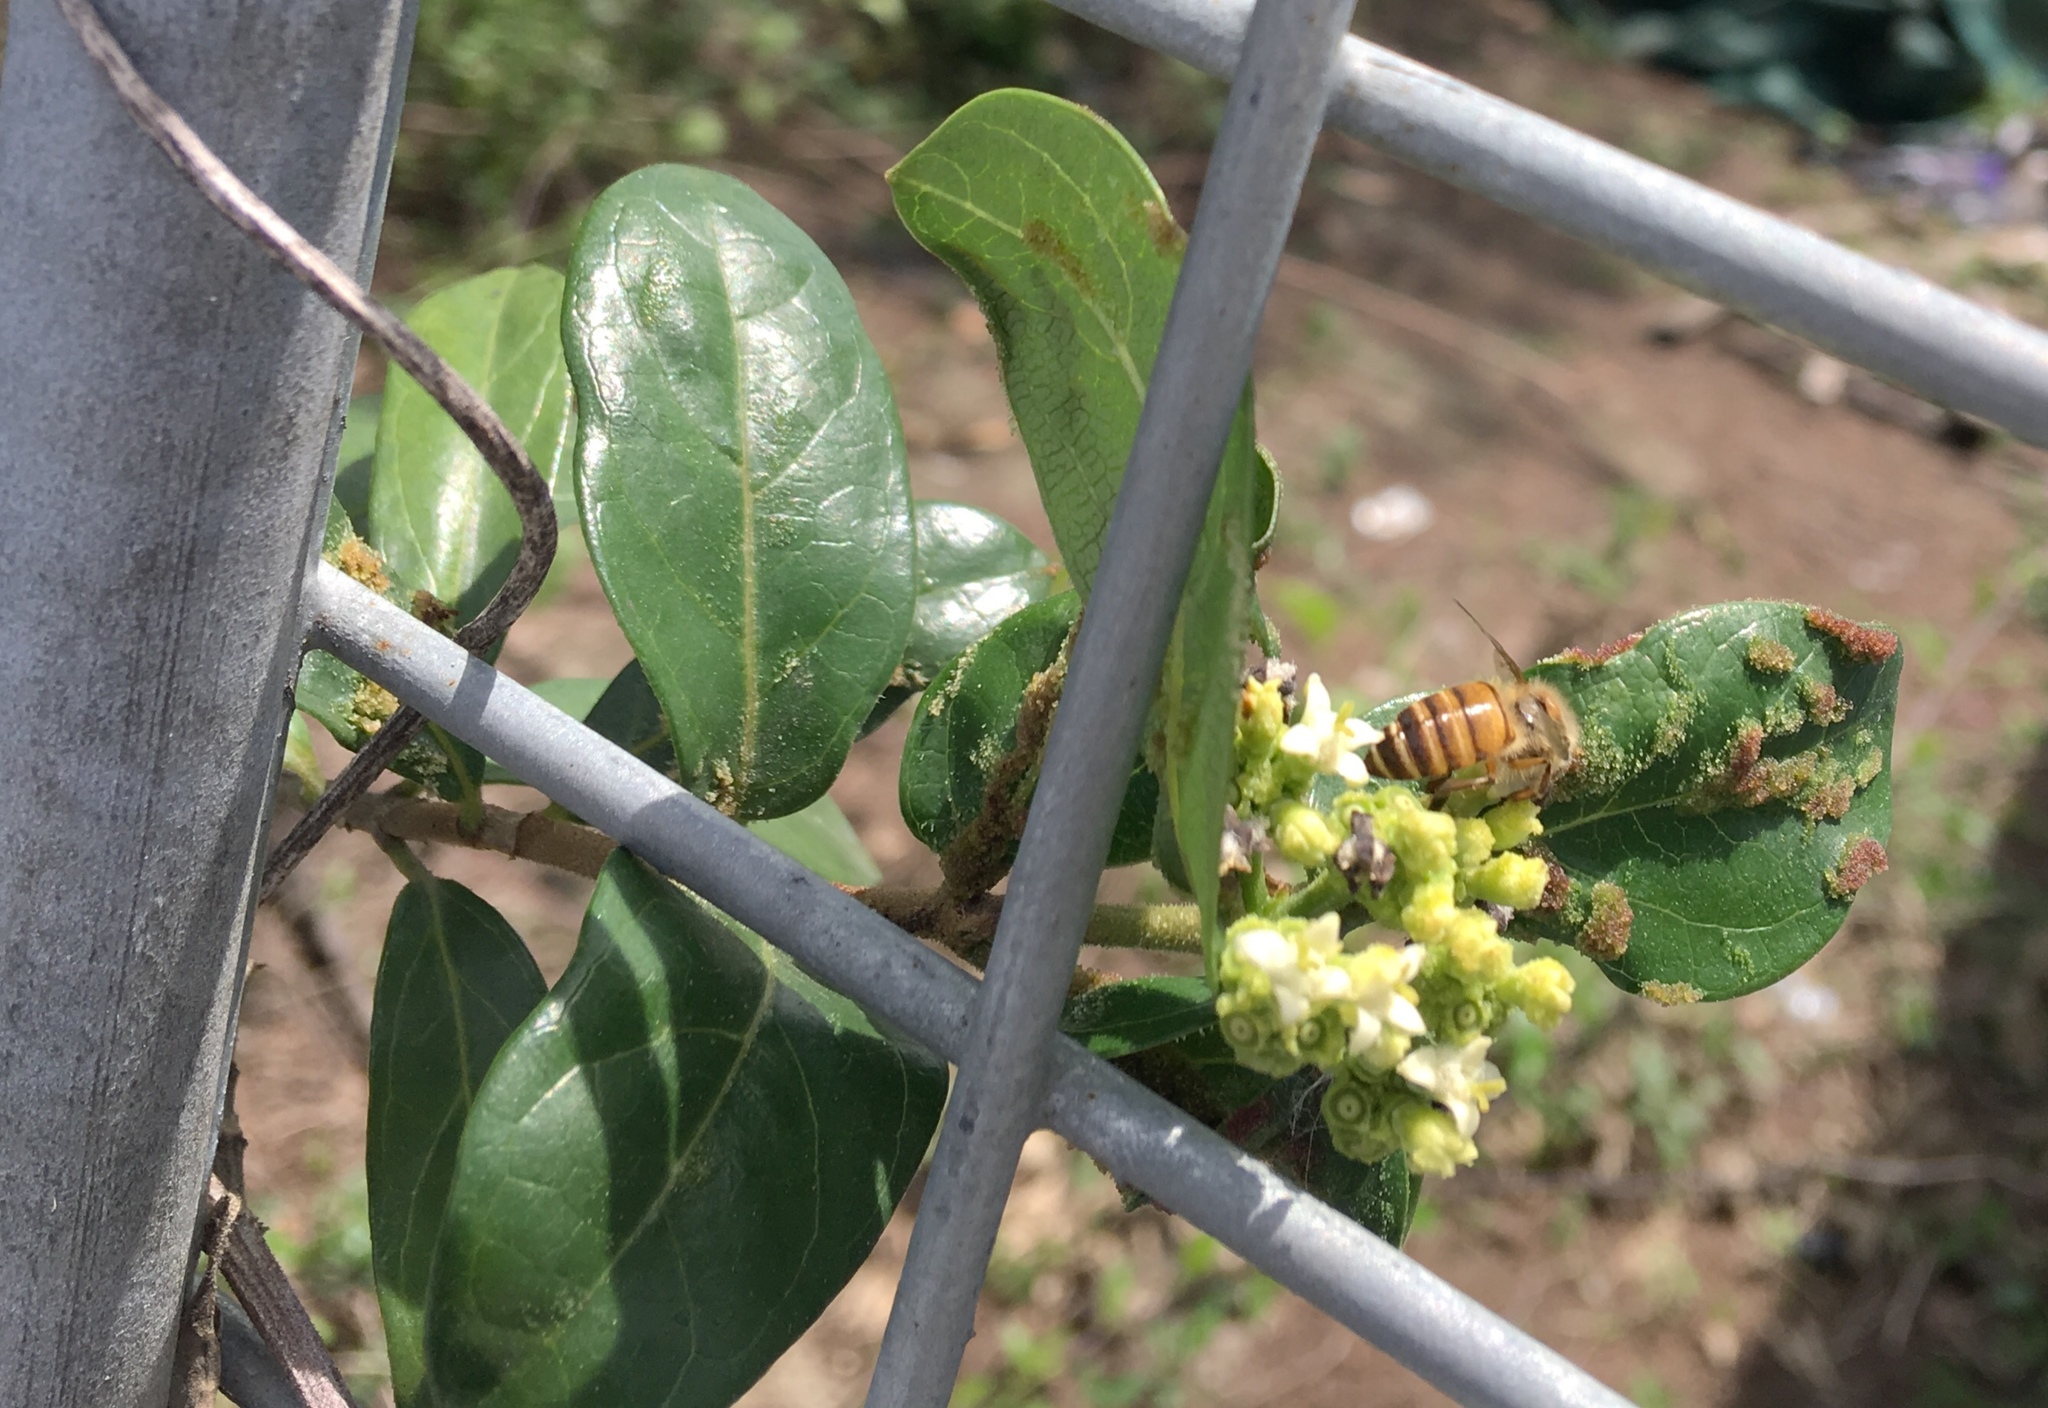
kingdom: Plantae
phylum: Tracheophyta
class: Magnoliopsida
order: Gentianales
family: Rubiaceae
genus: Gynochthodes
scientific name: Gynochthodes parvifolia
